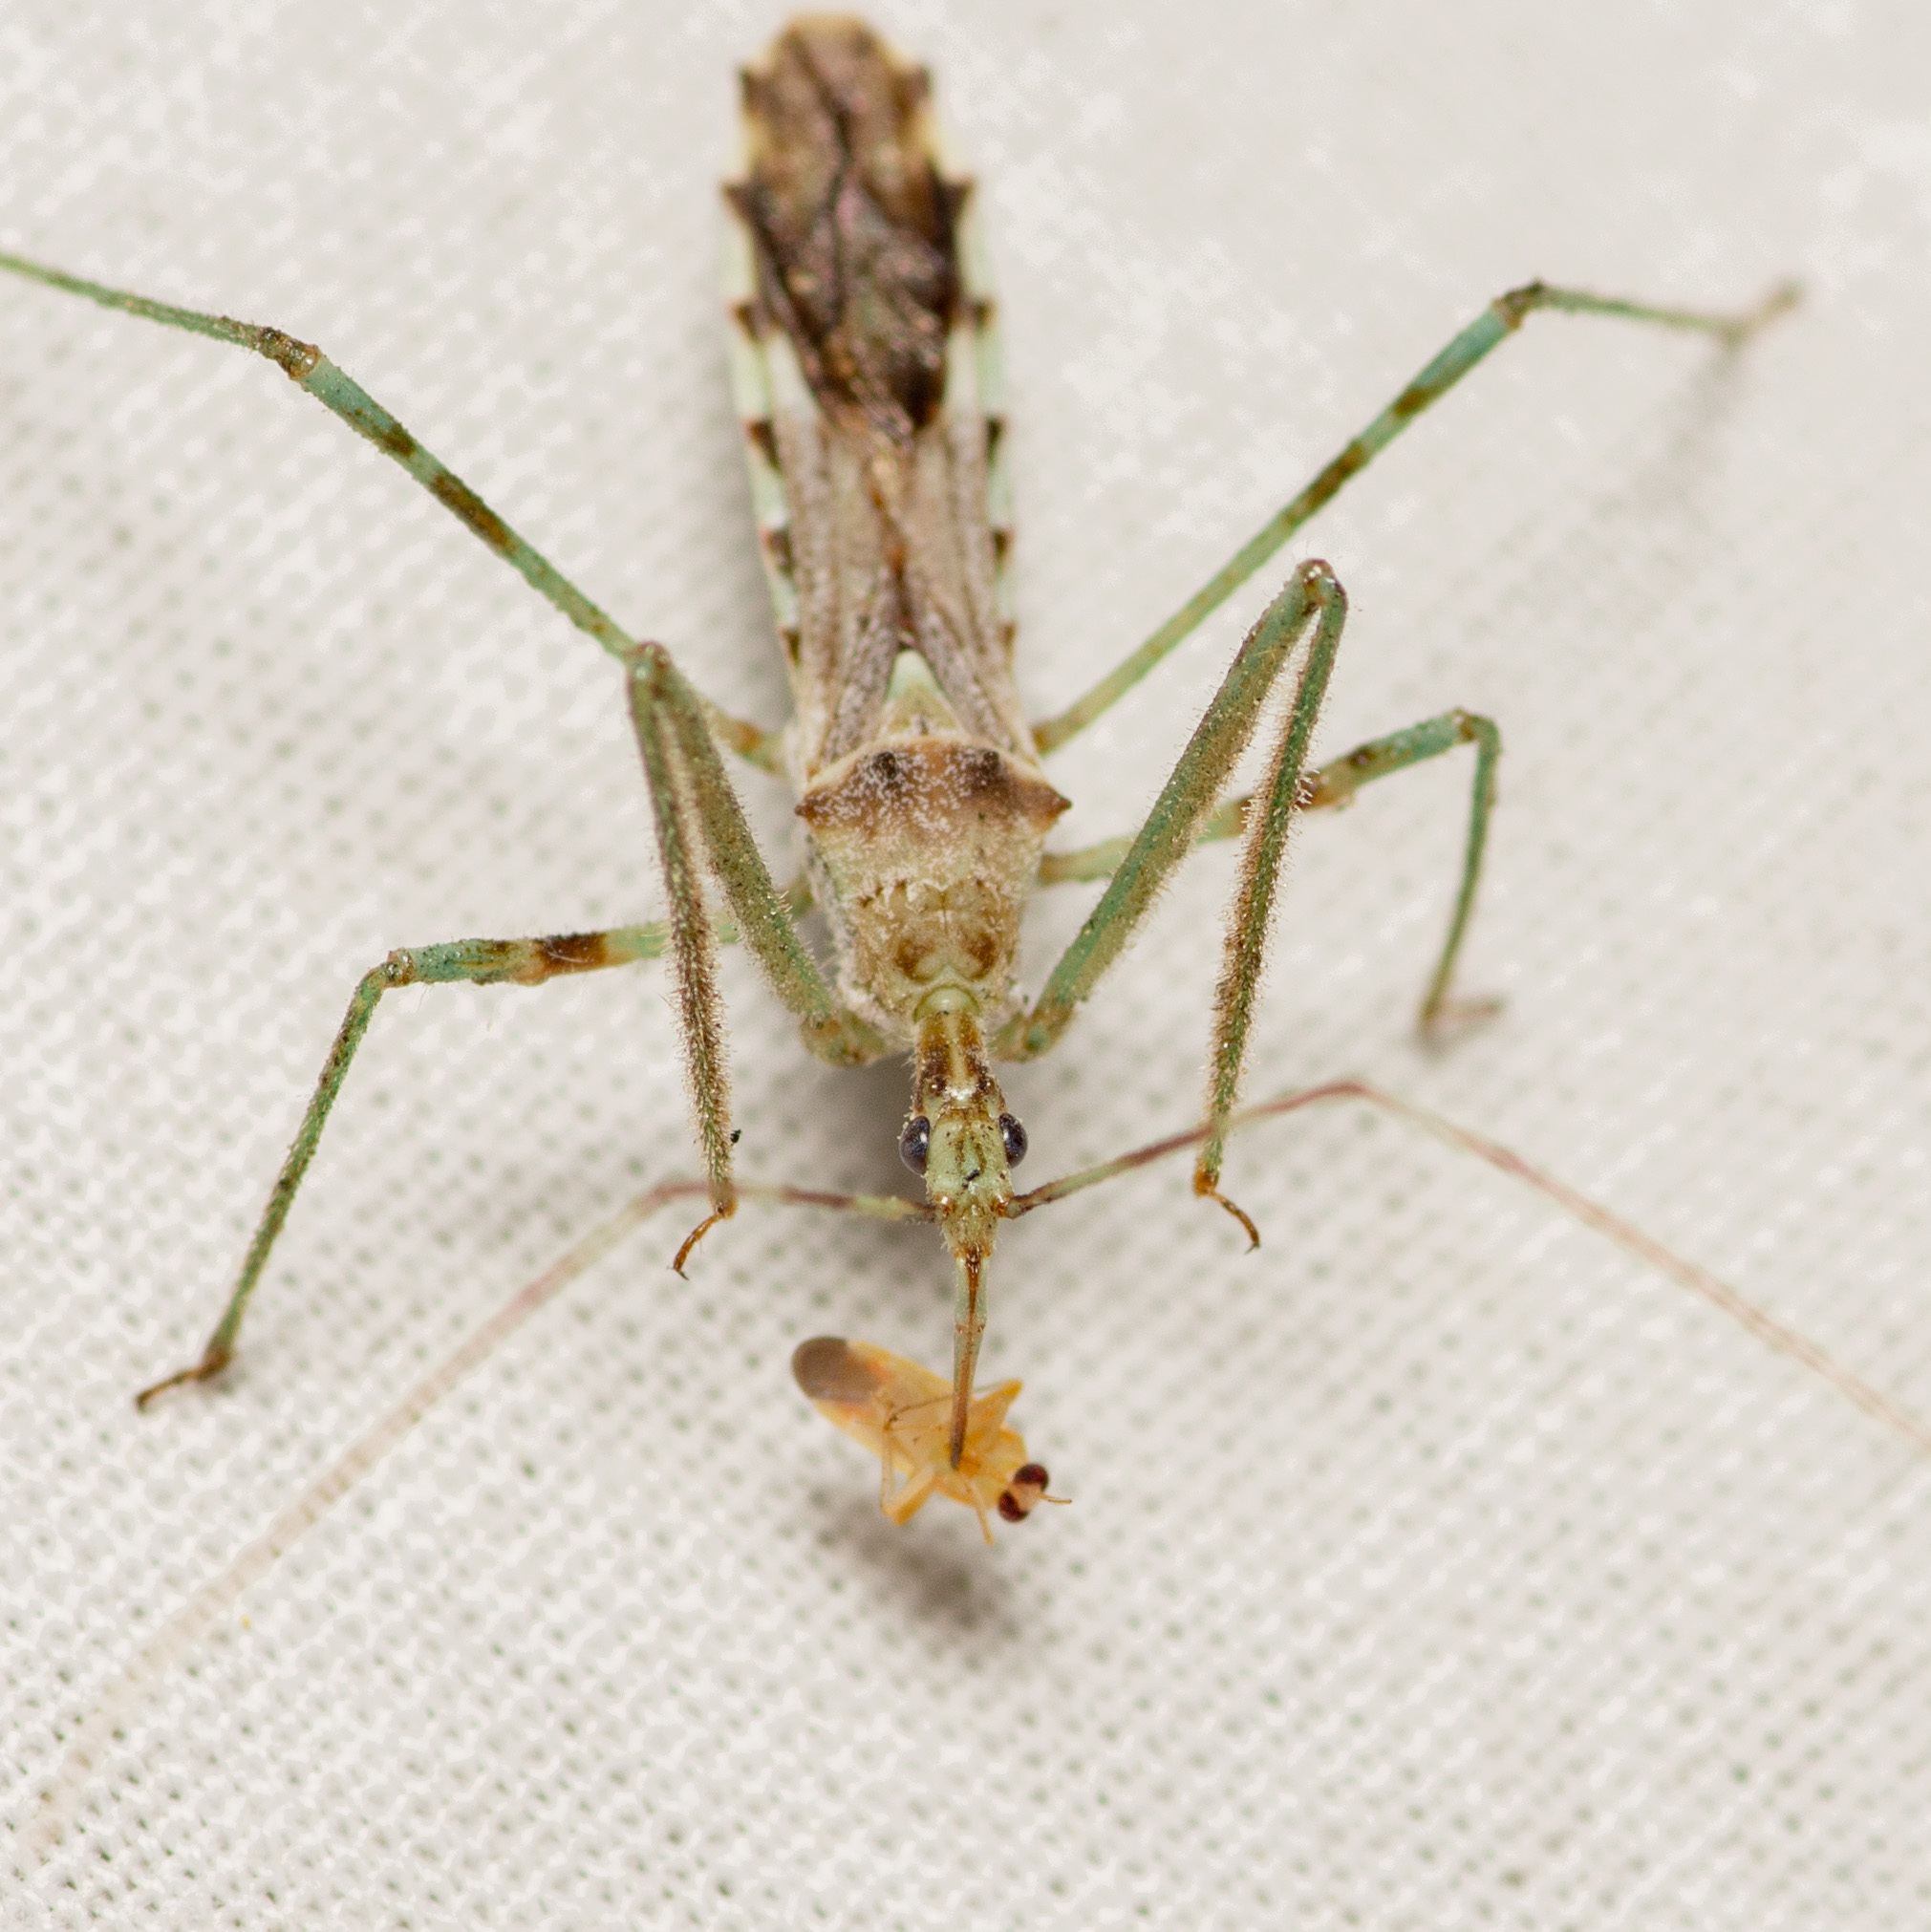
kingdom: Animalia
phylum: Arthropoda
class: Insecta
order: Hemiptera
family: Reduviidae
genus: Zelus
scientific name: Zelus tetracanthus
